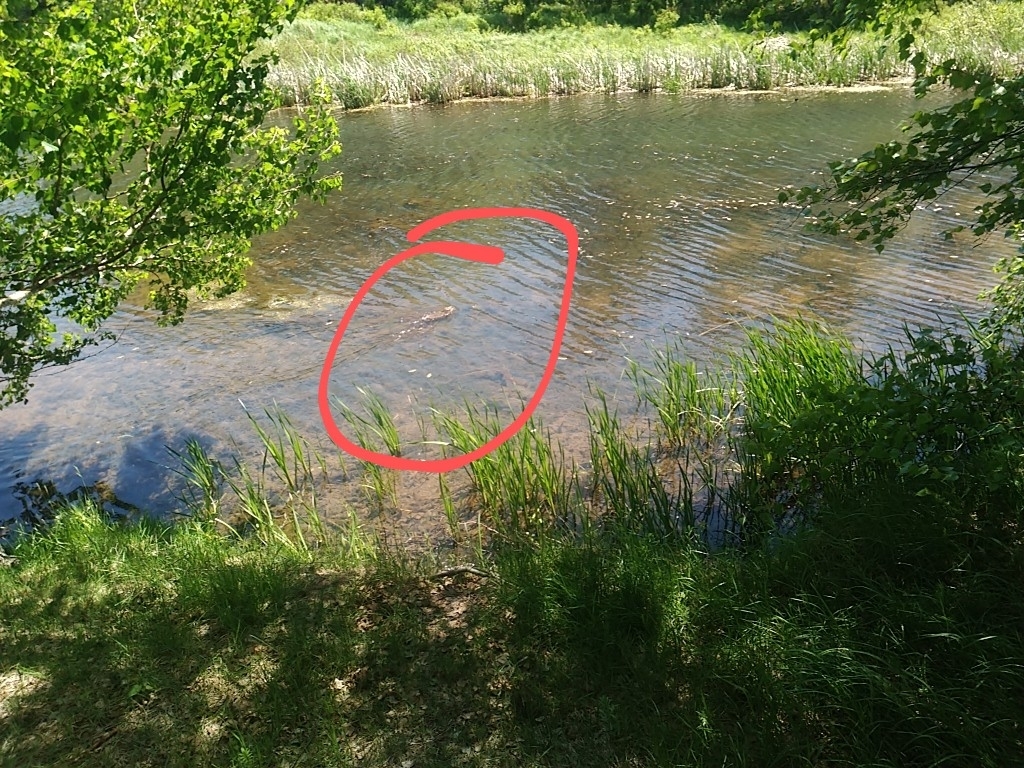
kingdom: Animalia
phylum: Chordata
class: Mammalia
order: Rodentia
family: Cricetidae
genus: Ondatra
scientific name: Ondatra zibethicus
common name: Muskrat
